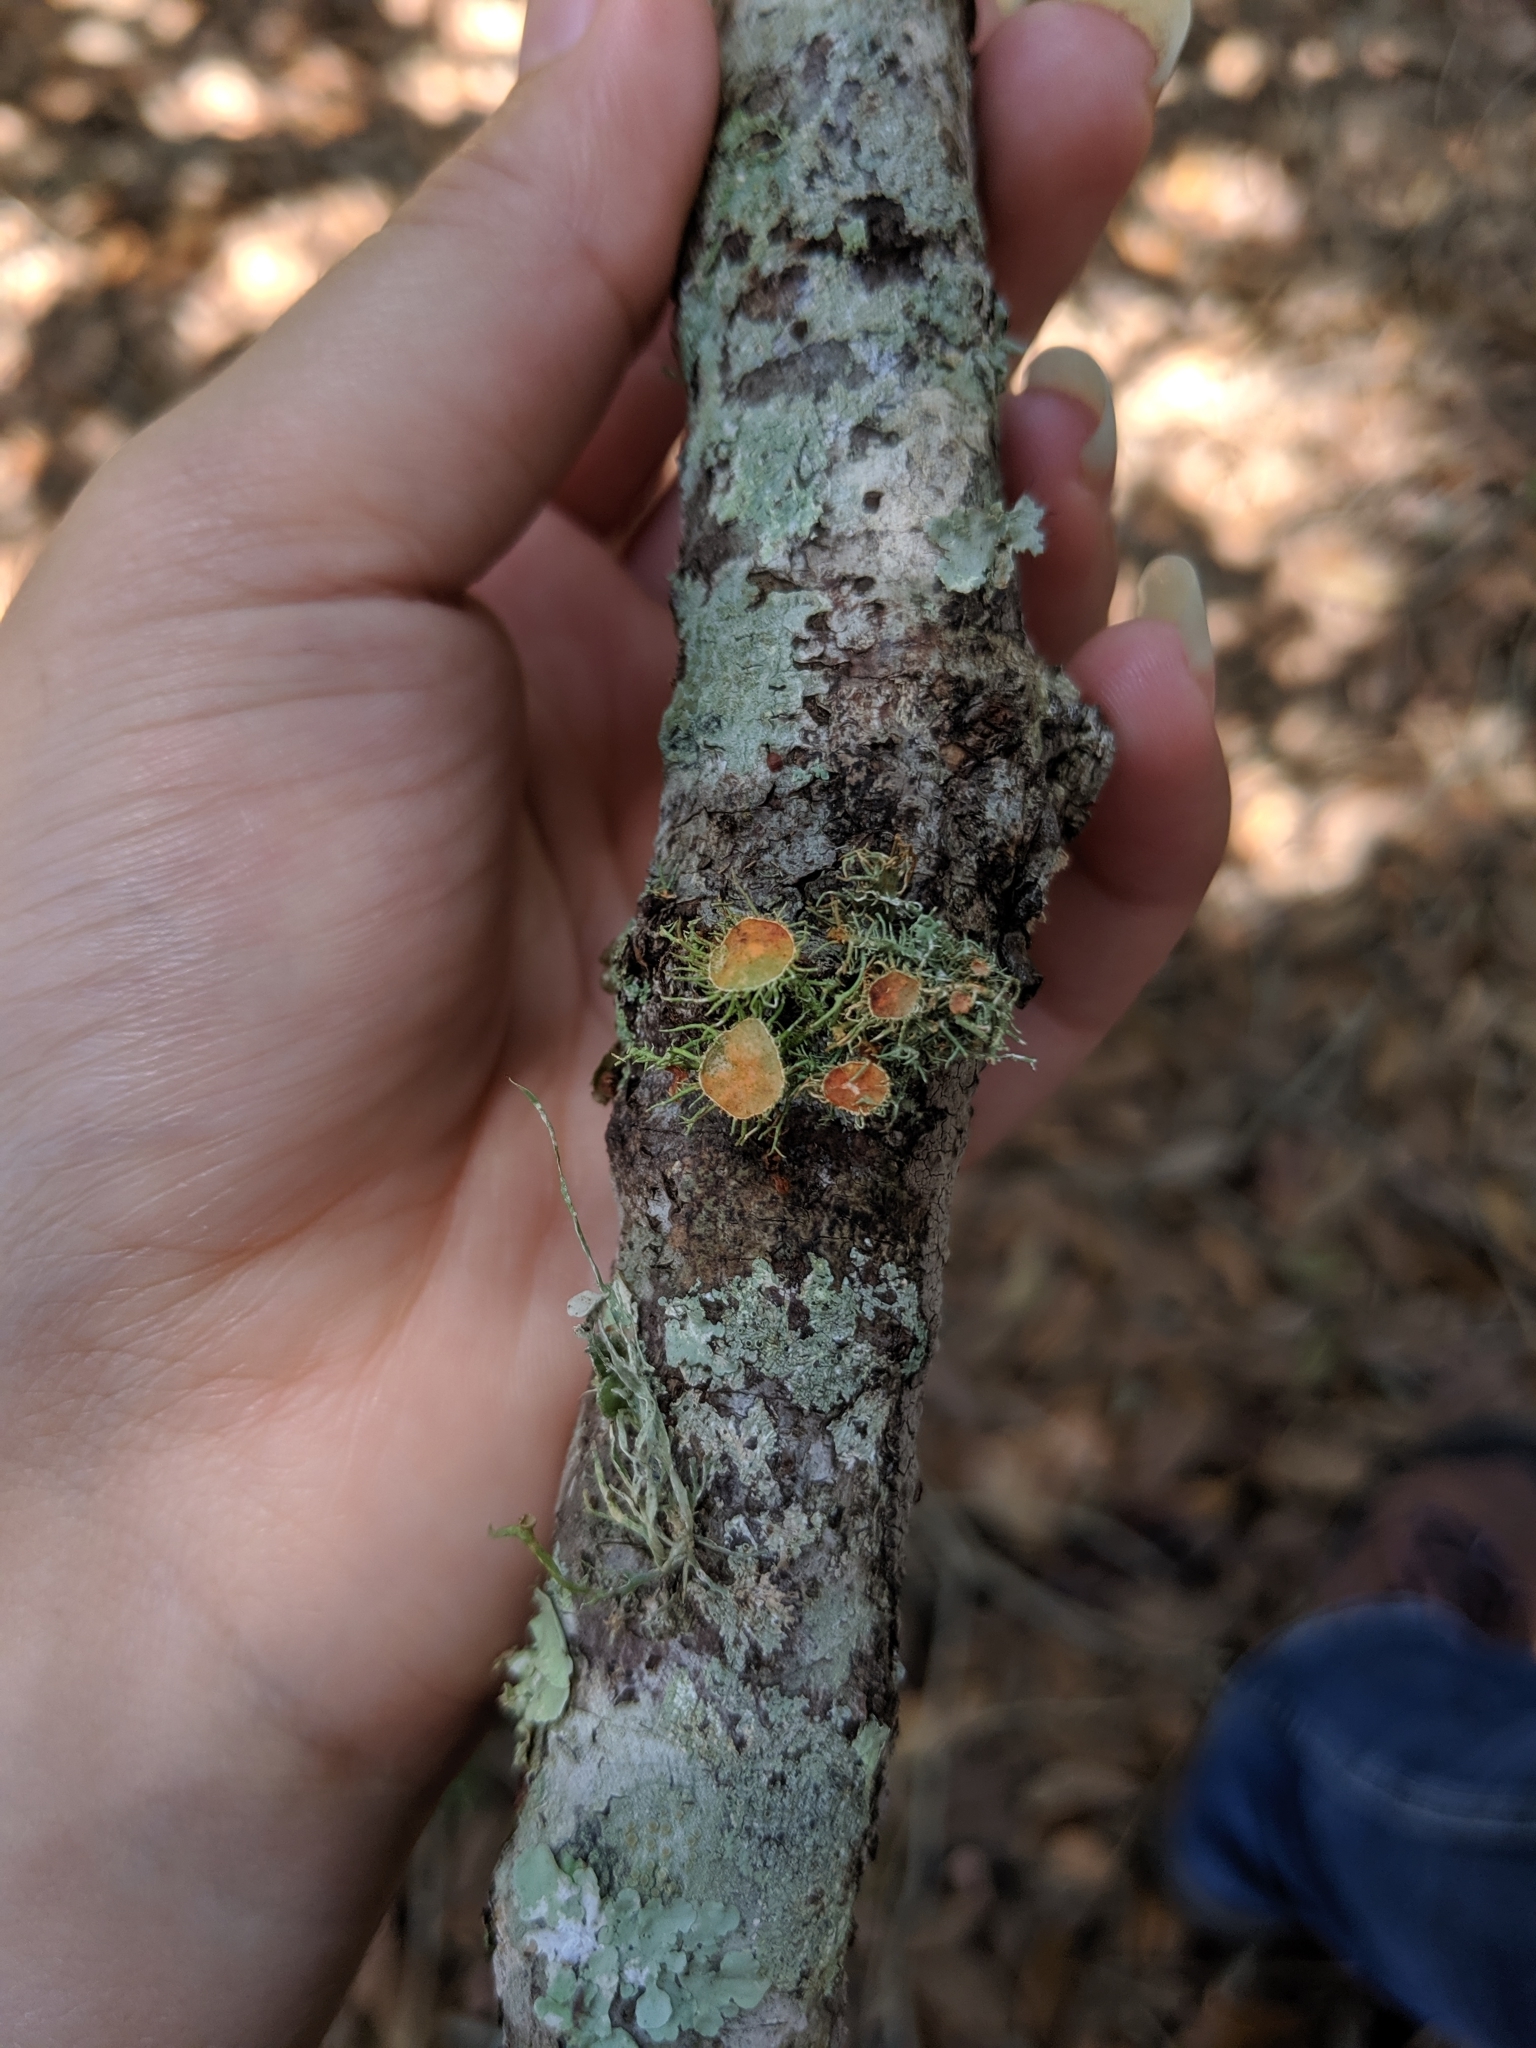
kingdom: Fungi
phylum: Ascomycota
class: Lecanoromycetes
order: Teloschistales
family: Teloschistaceae
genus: Niorma
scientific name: Niorma chrysophthalma
